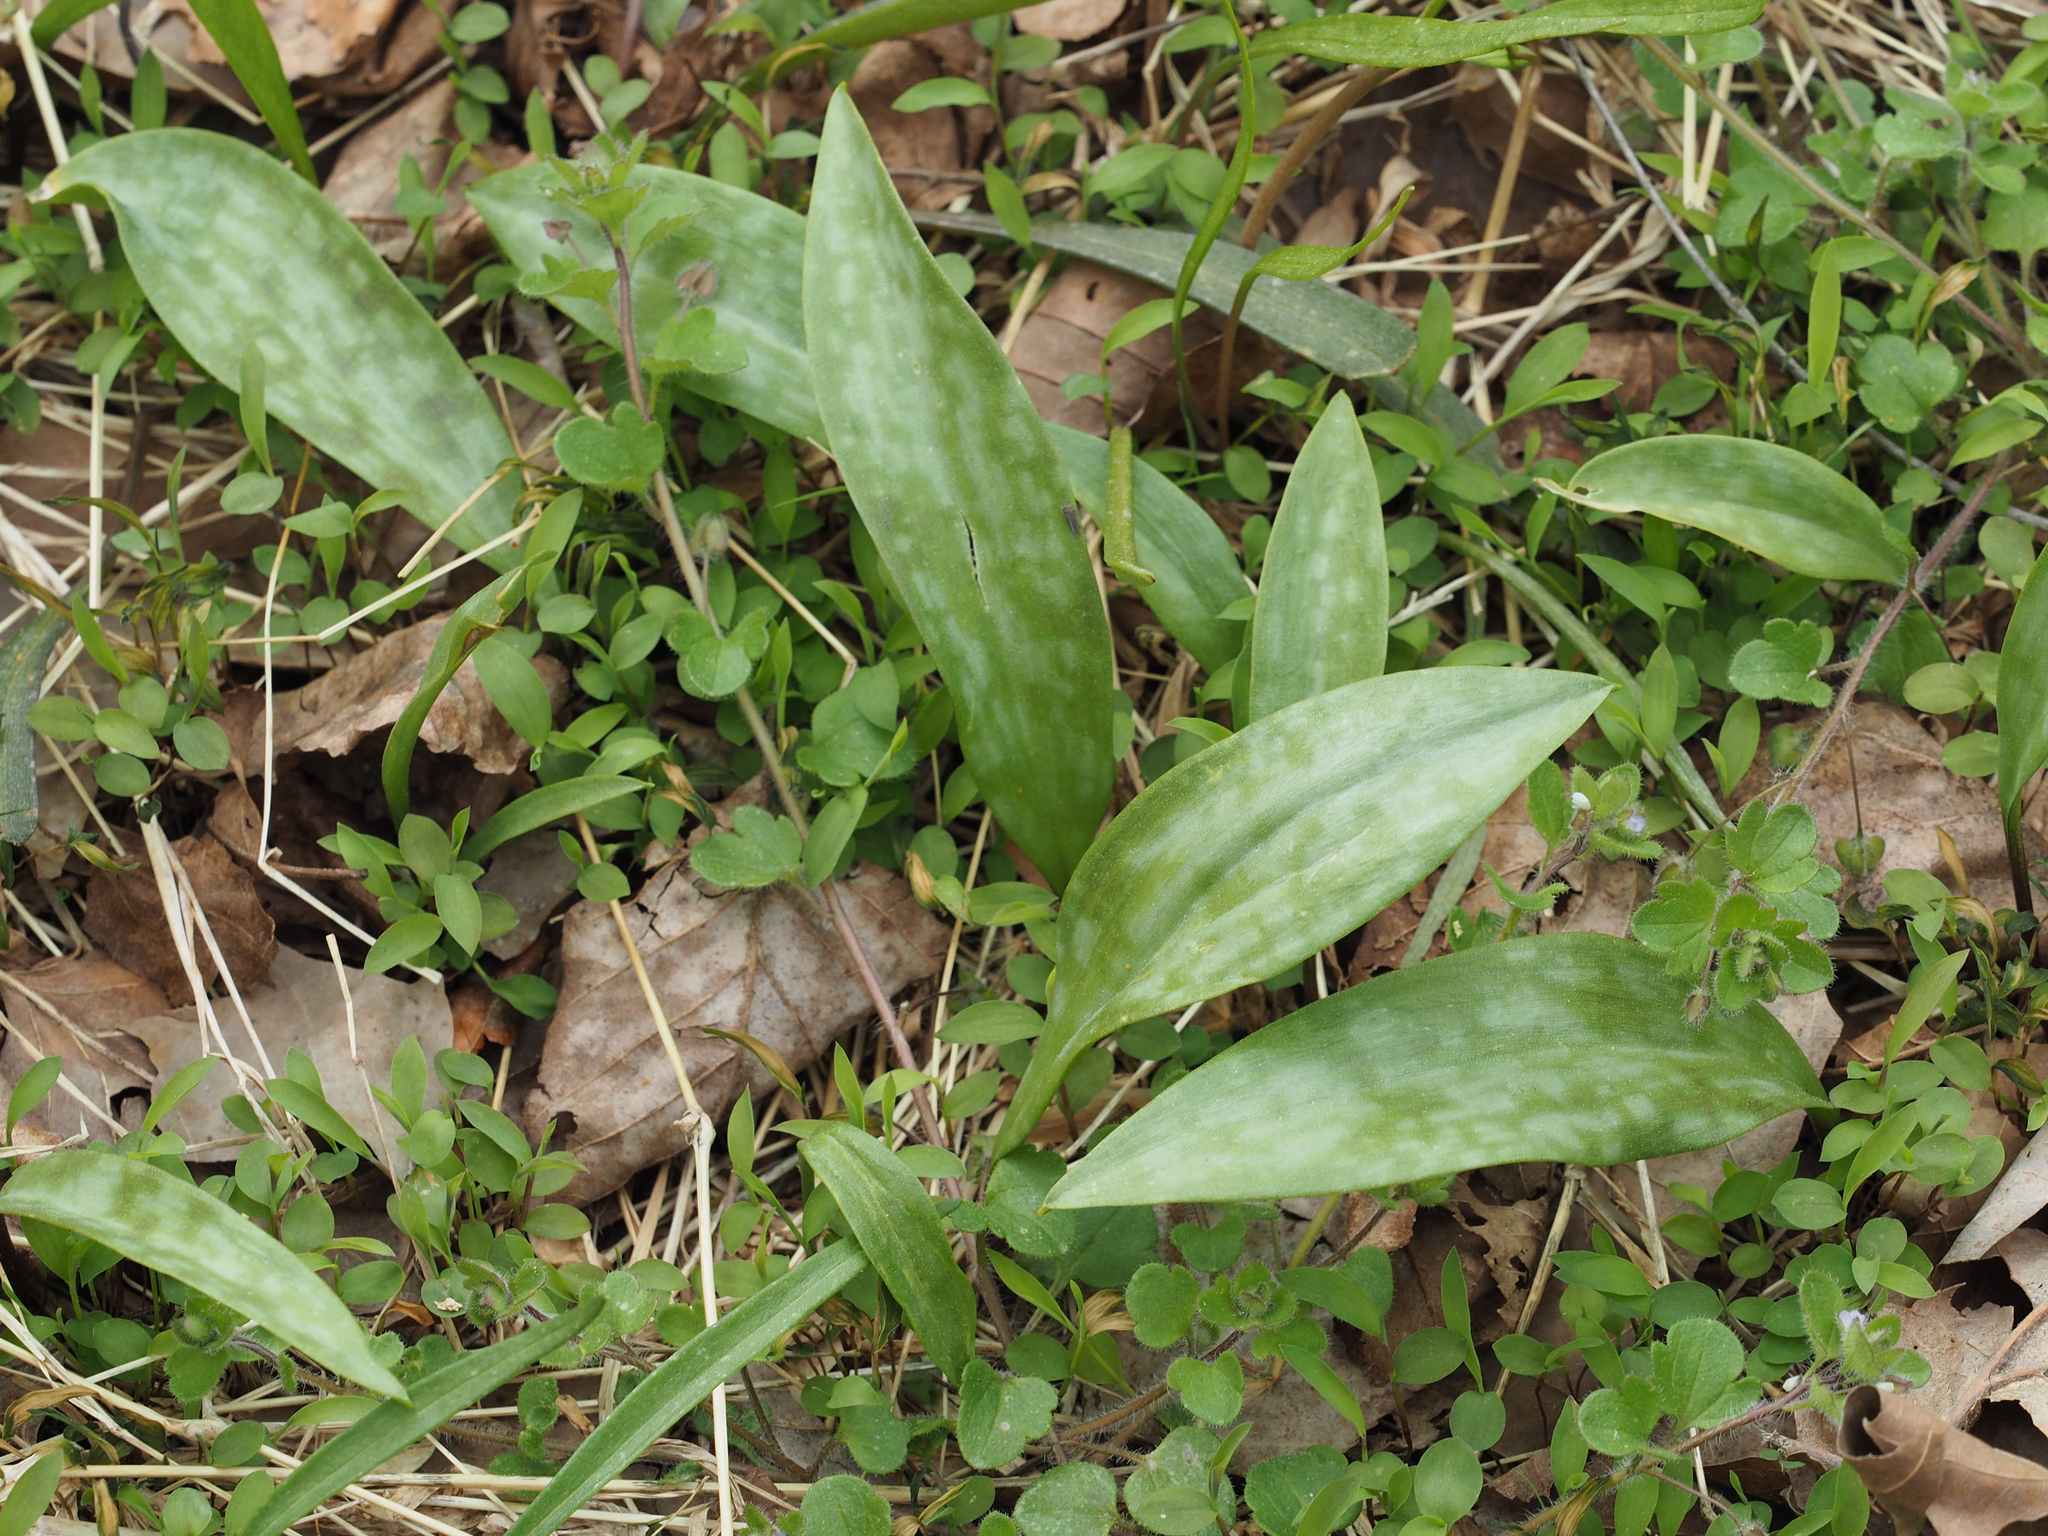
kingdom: Plantae
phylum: Tracheophyta
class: Liliopsida
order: Liliales
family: Liliaceae
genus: Erythronium
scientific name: Erythronium americanum
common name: Yellow adder's-tongue
